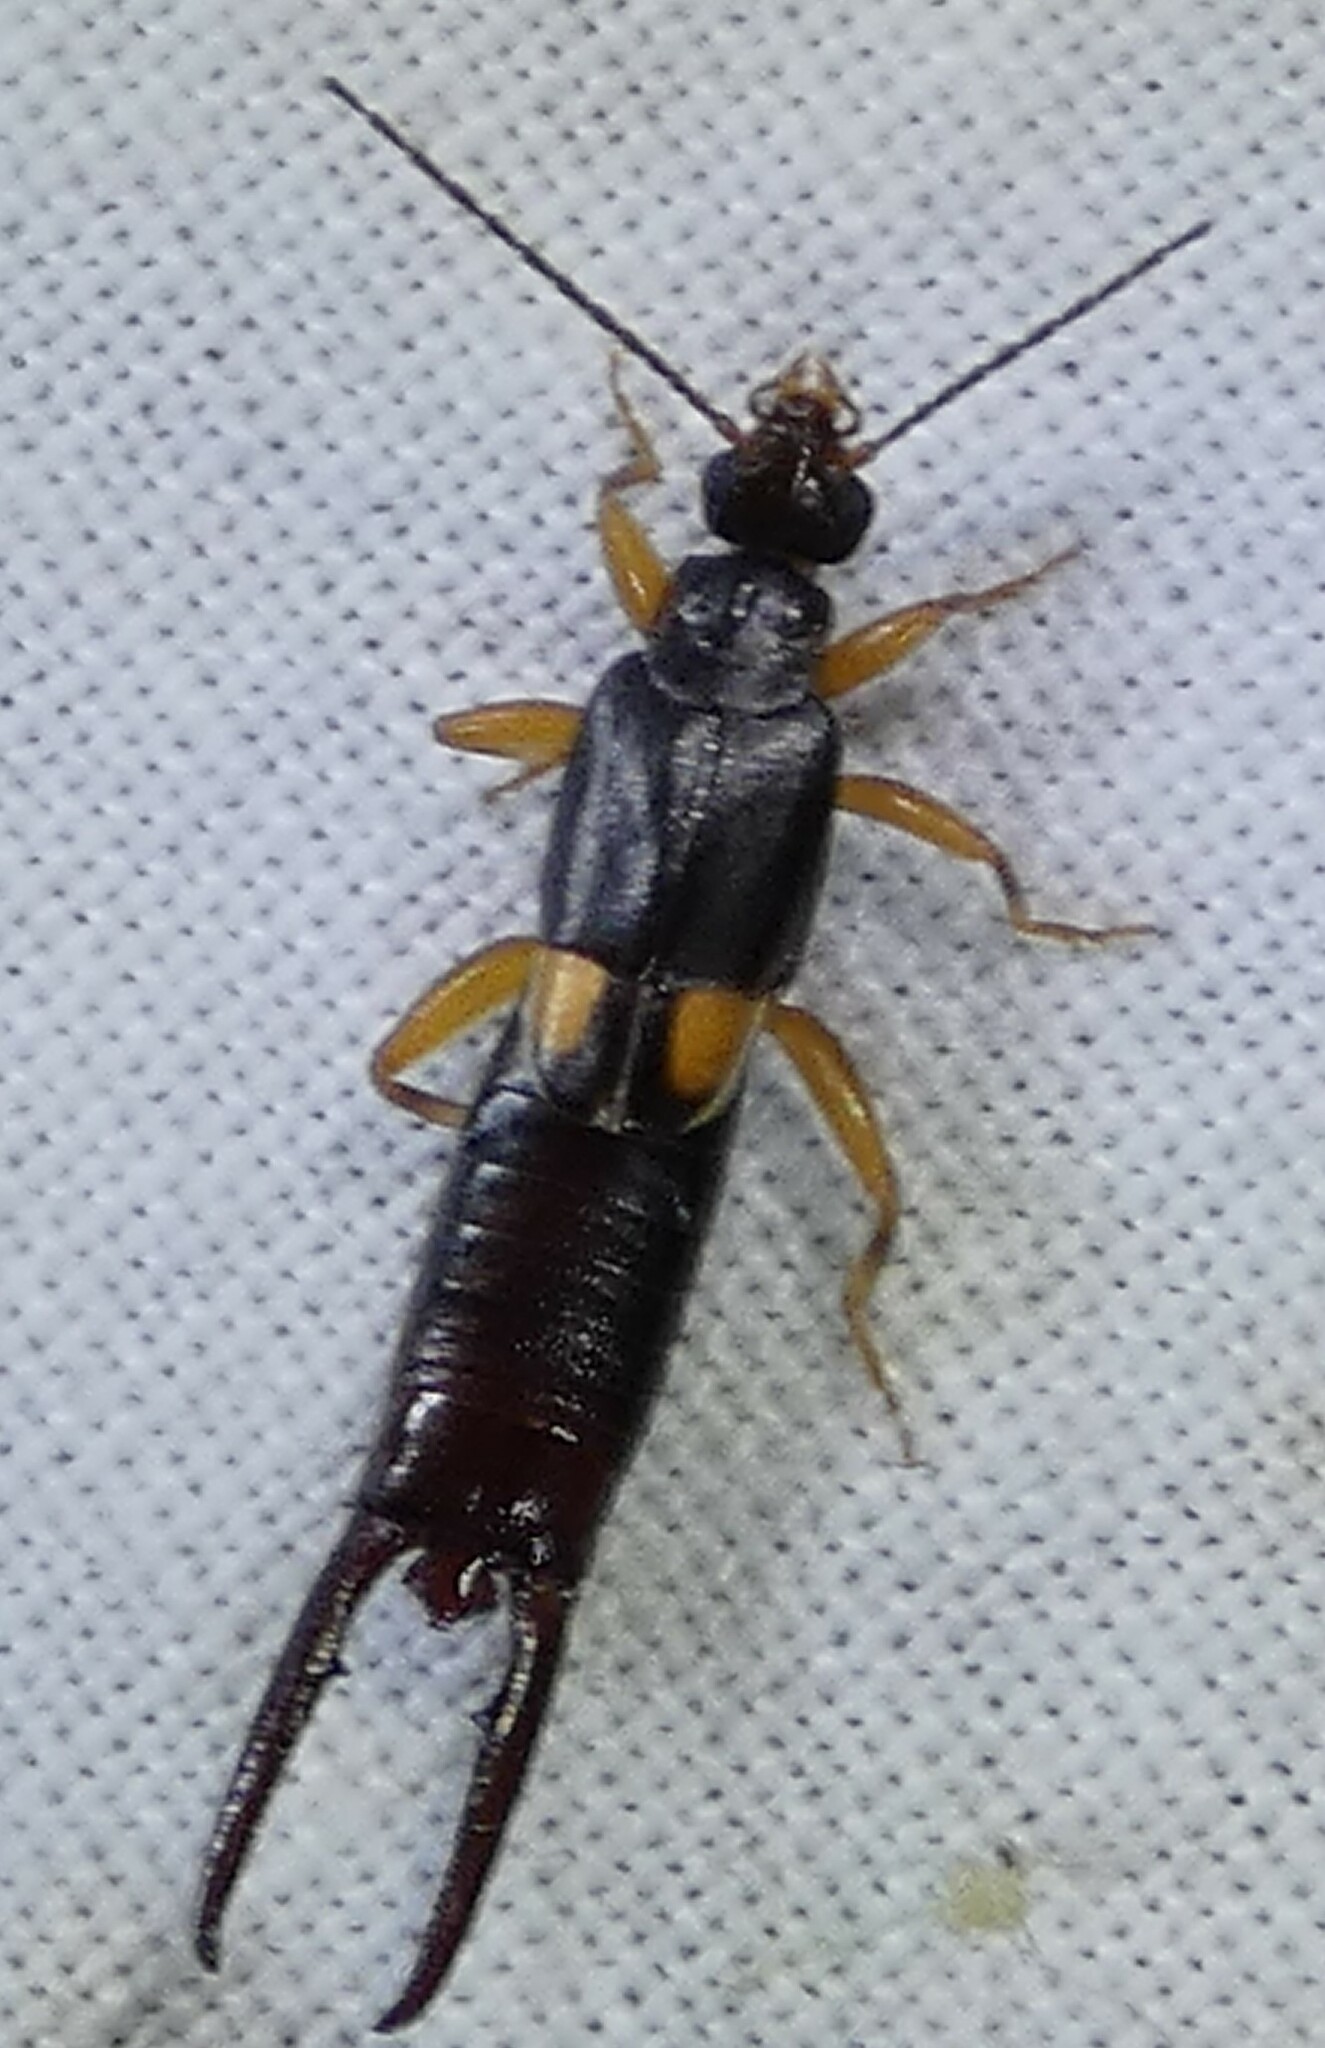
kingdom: Animalia
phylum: Arthropoda
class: Insecta
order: Dermaptera
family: Spongiphoridae
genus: Vostox
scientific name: Vostox brunneipennis
